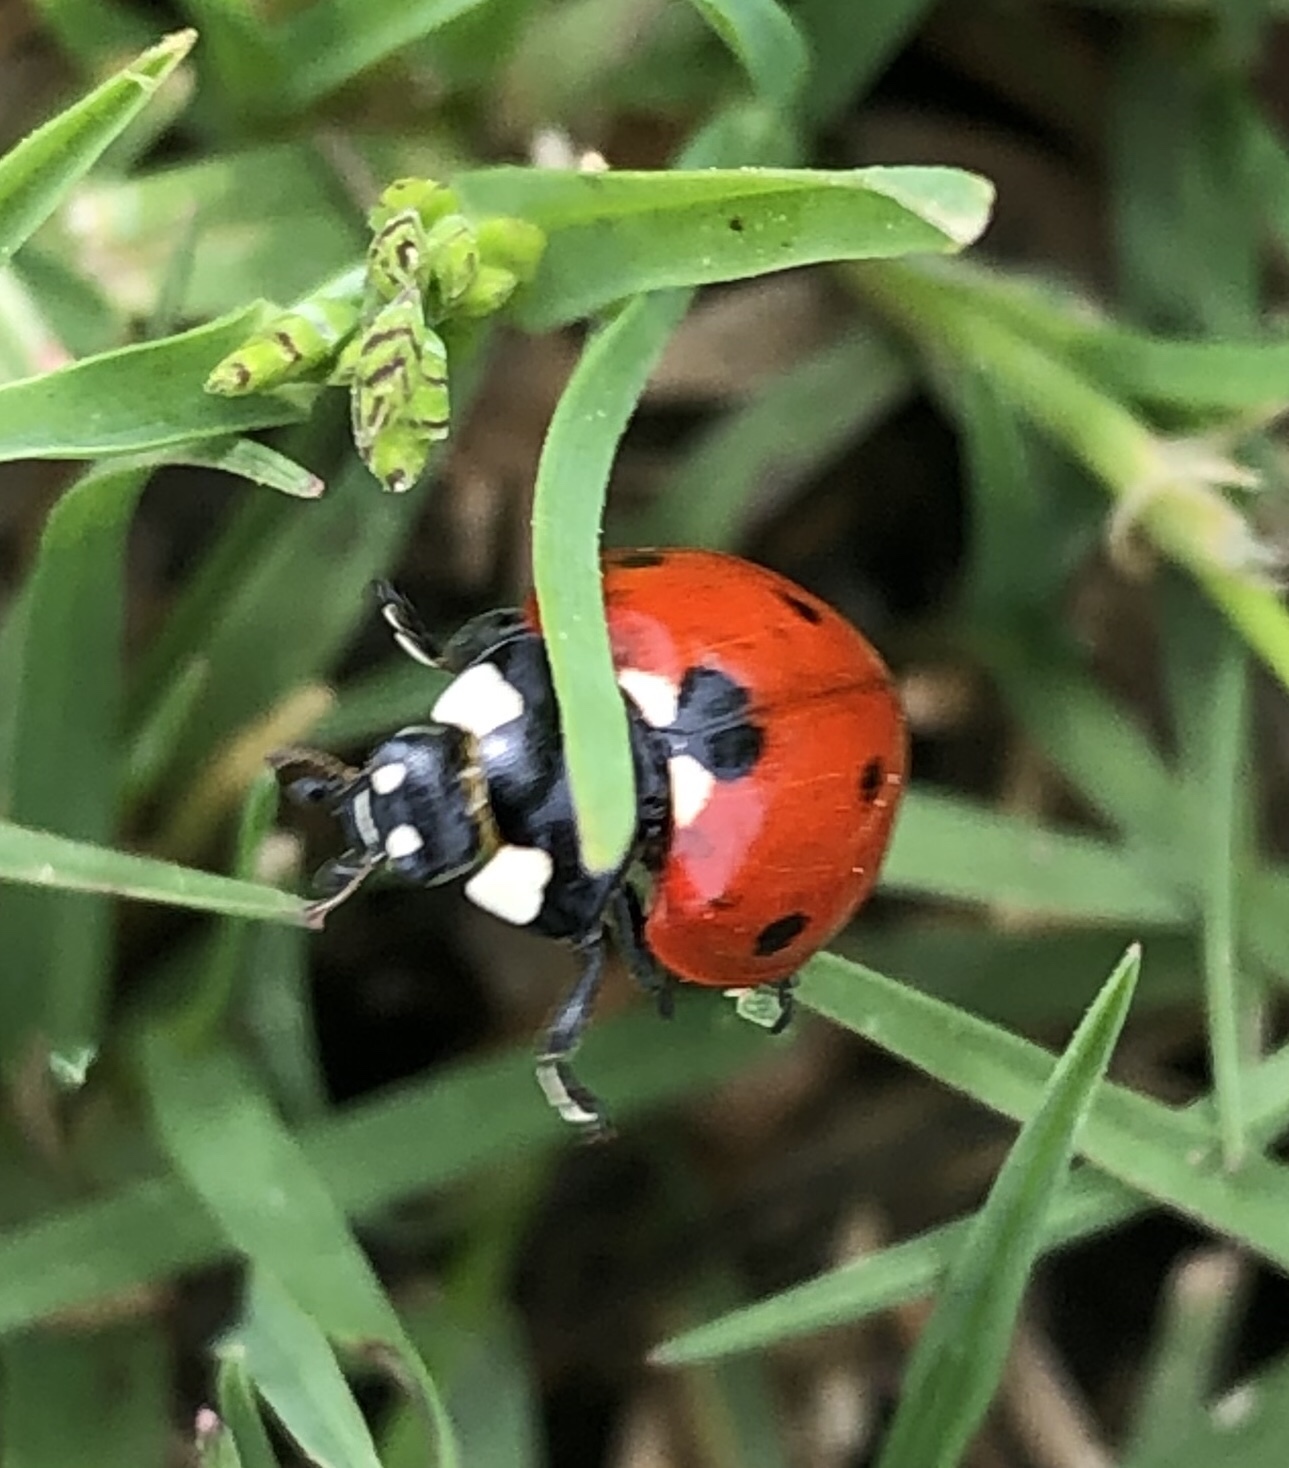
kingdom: Animalia
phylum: Arthropoda
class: Insecta
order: Coleoptera
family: Coccinellidae
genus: Coccinella
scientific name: Coccinella septempunctata
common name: Sevenspotted lady beetle
